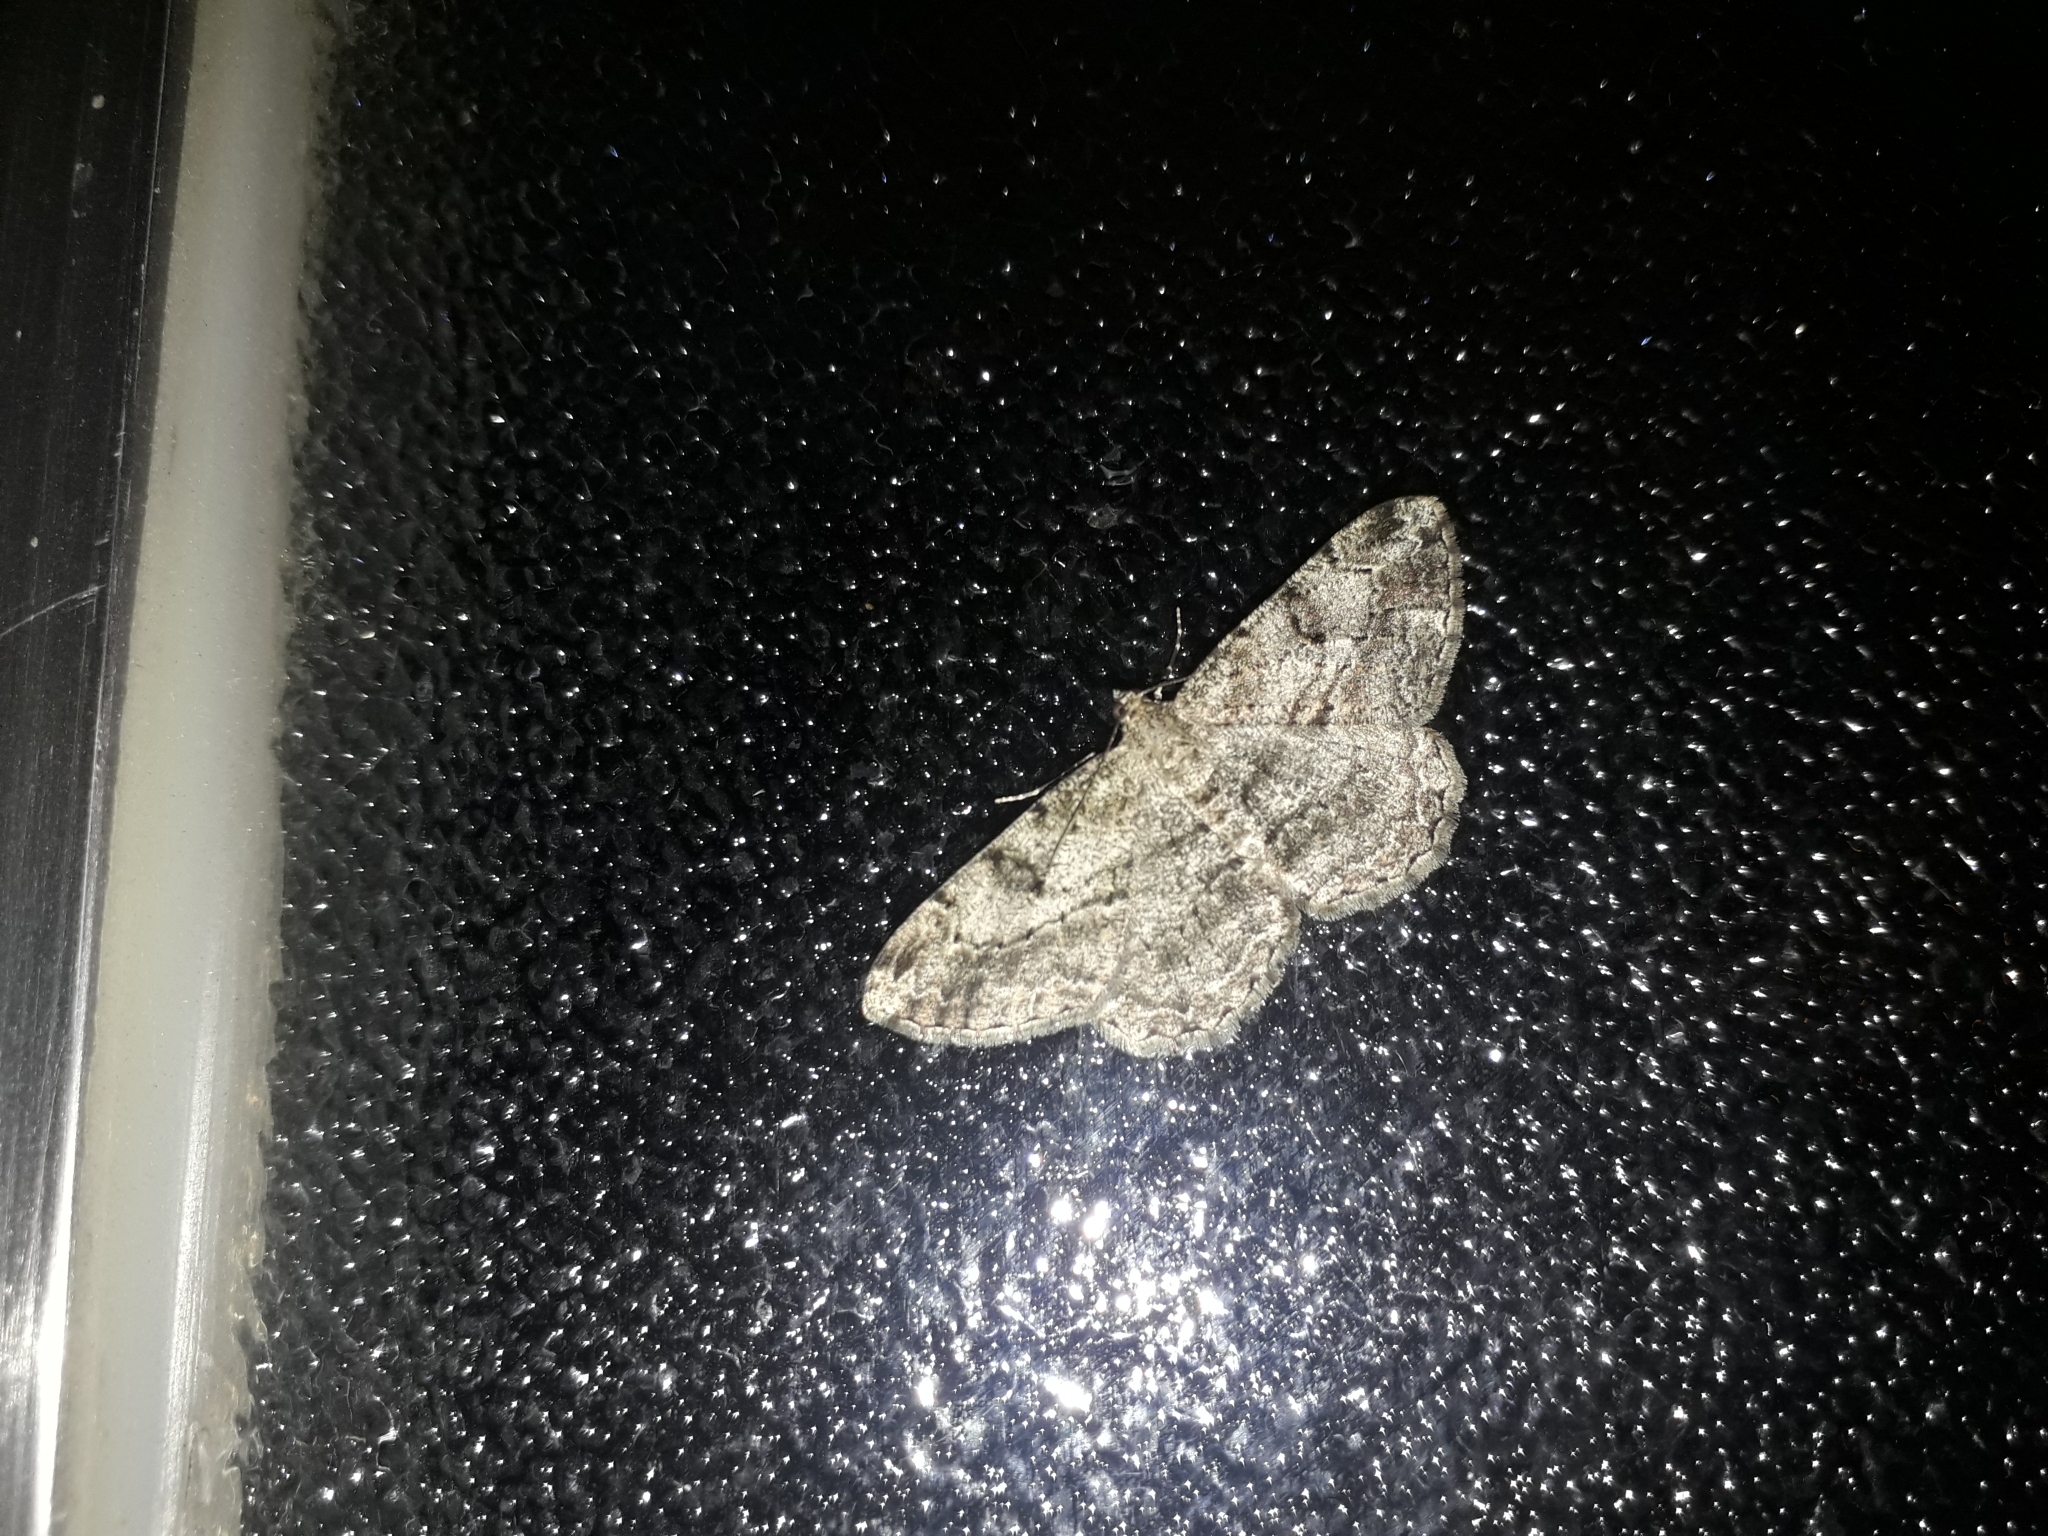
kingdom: Animalia
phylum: Arthropoda
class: Insecta
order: Lepidoptera
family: Geometridae
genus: Peribatodes
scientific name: Peribatodes rhomboidaria
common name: Willow beauty
